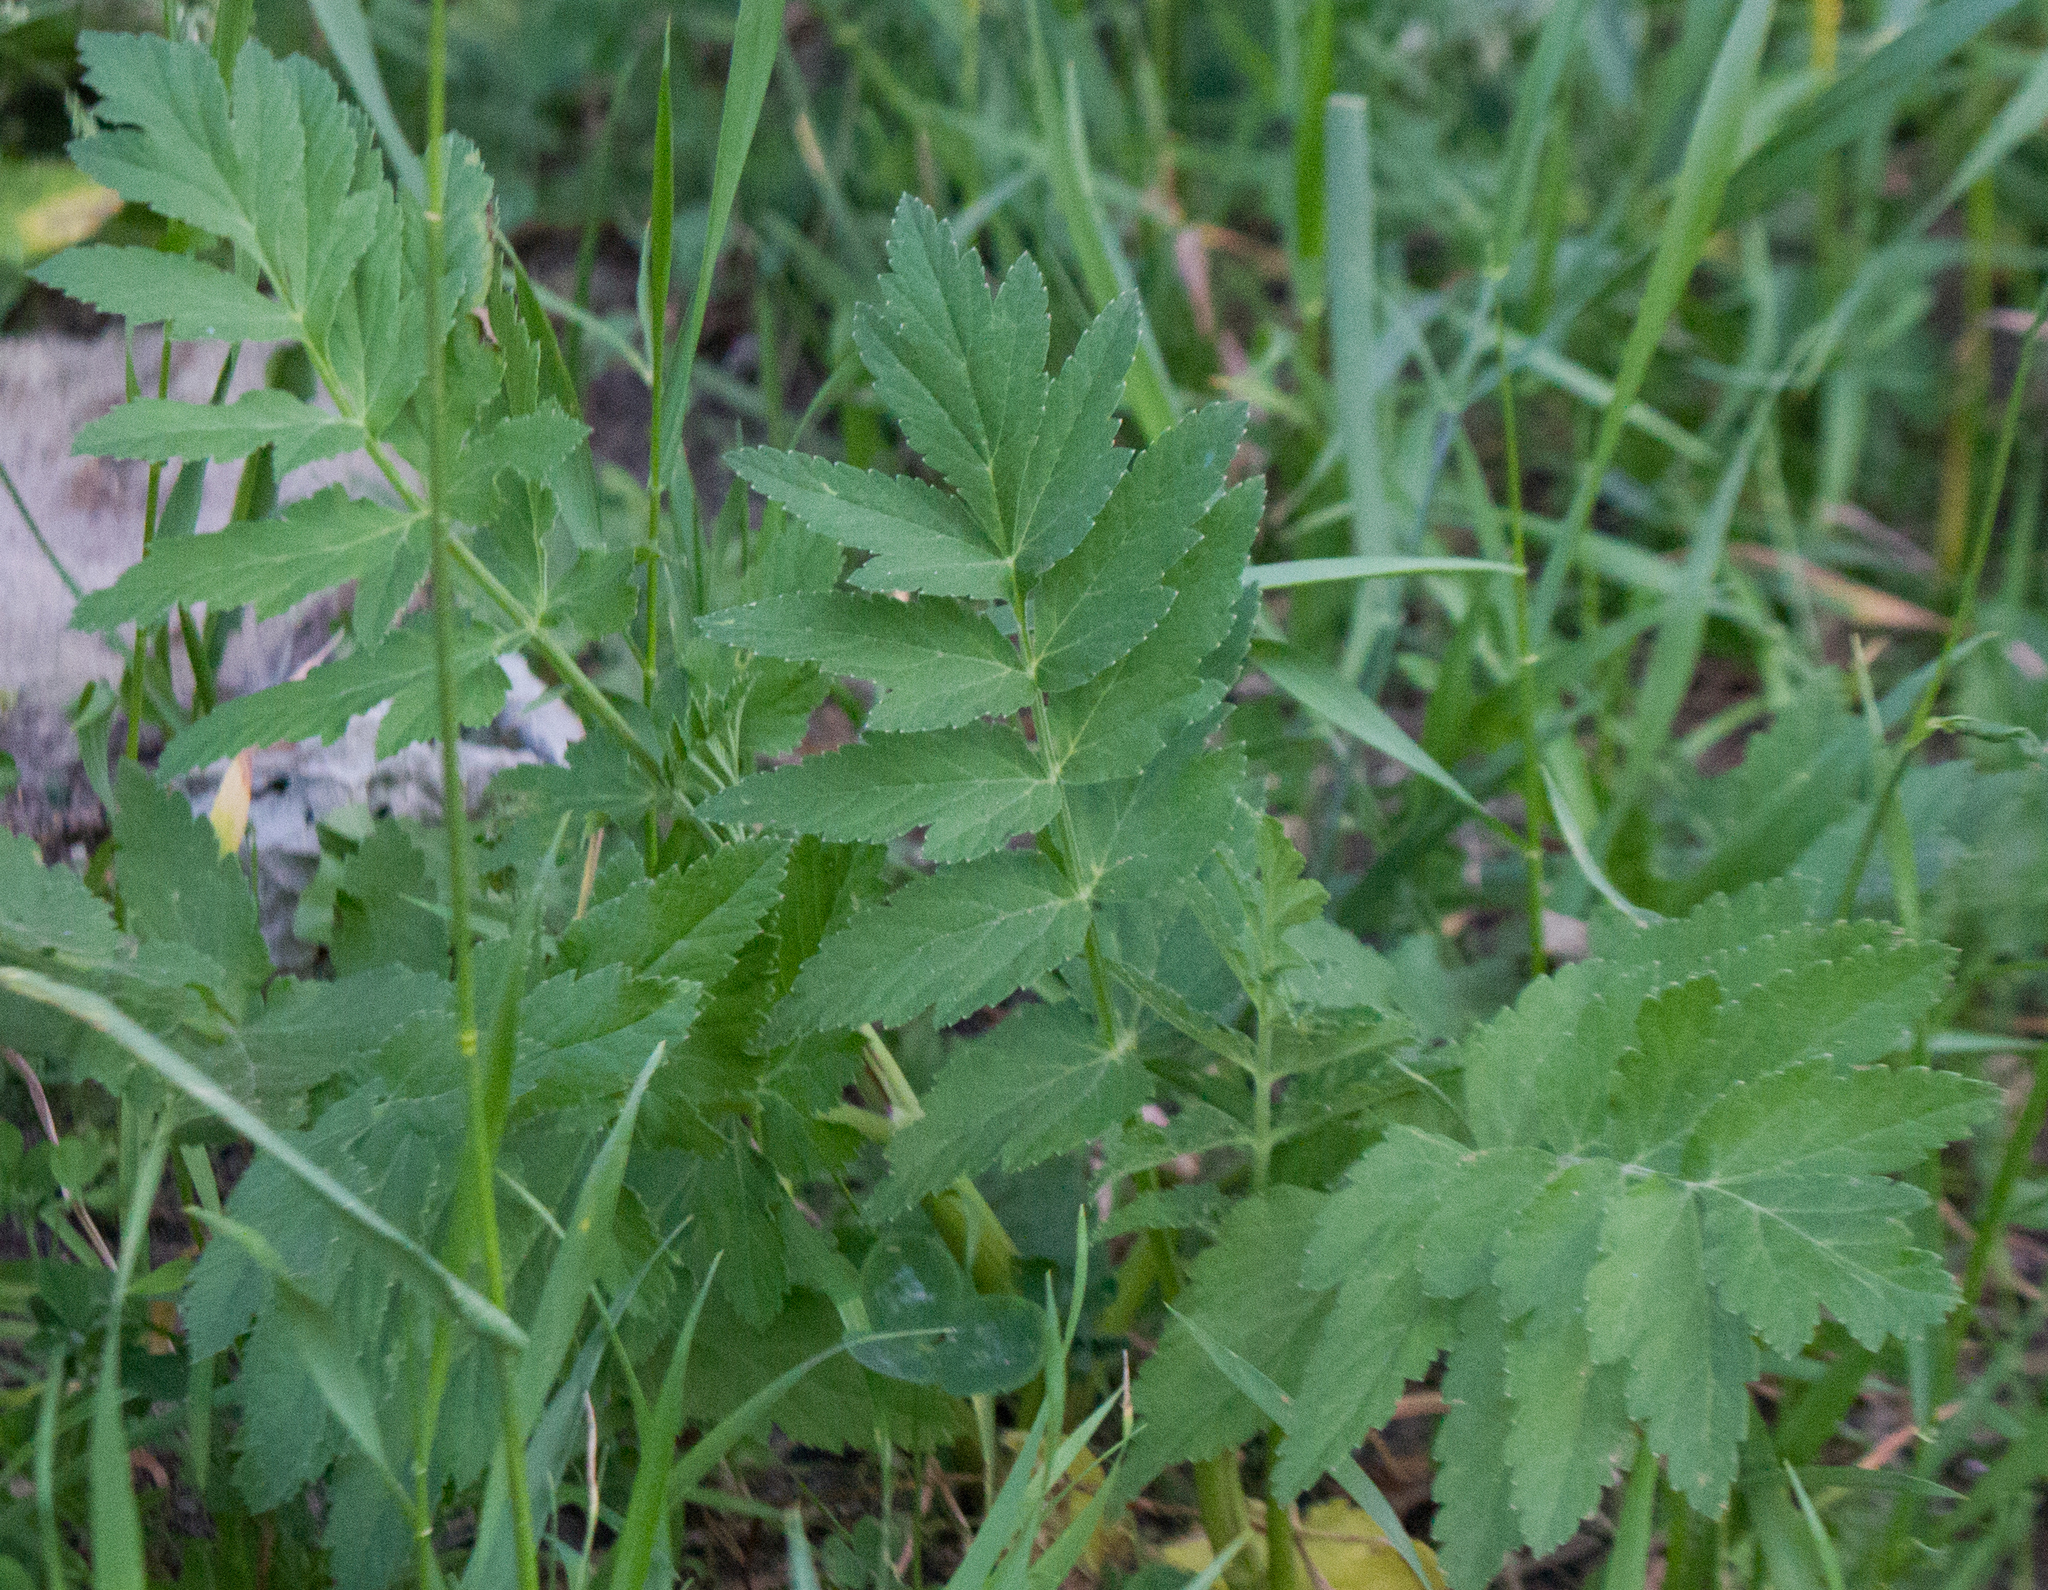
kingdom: Plantae
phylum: Tracheophyta
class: Magnoliopsida
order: Apiales
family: Apiaceae
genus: Pastinaca
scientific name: Pastinaca sativa
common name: Wild parsnip
